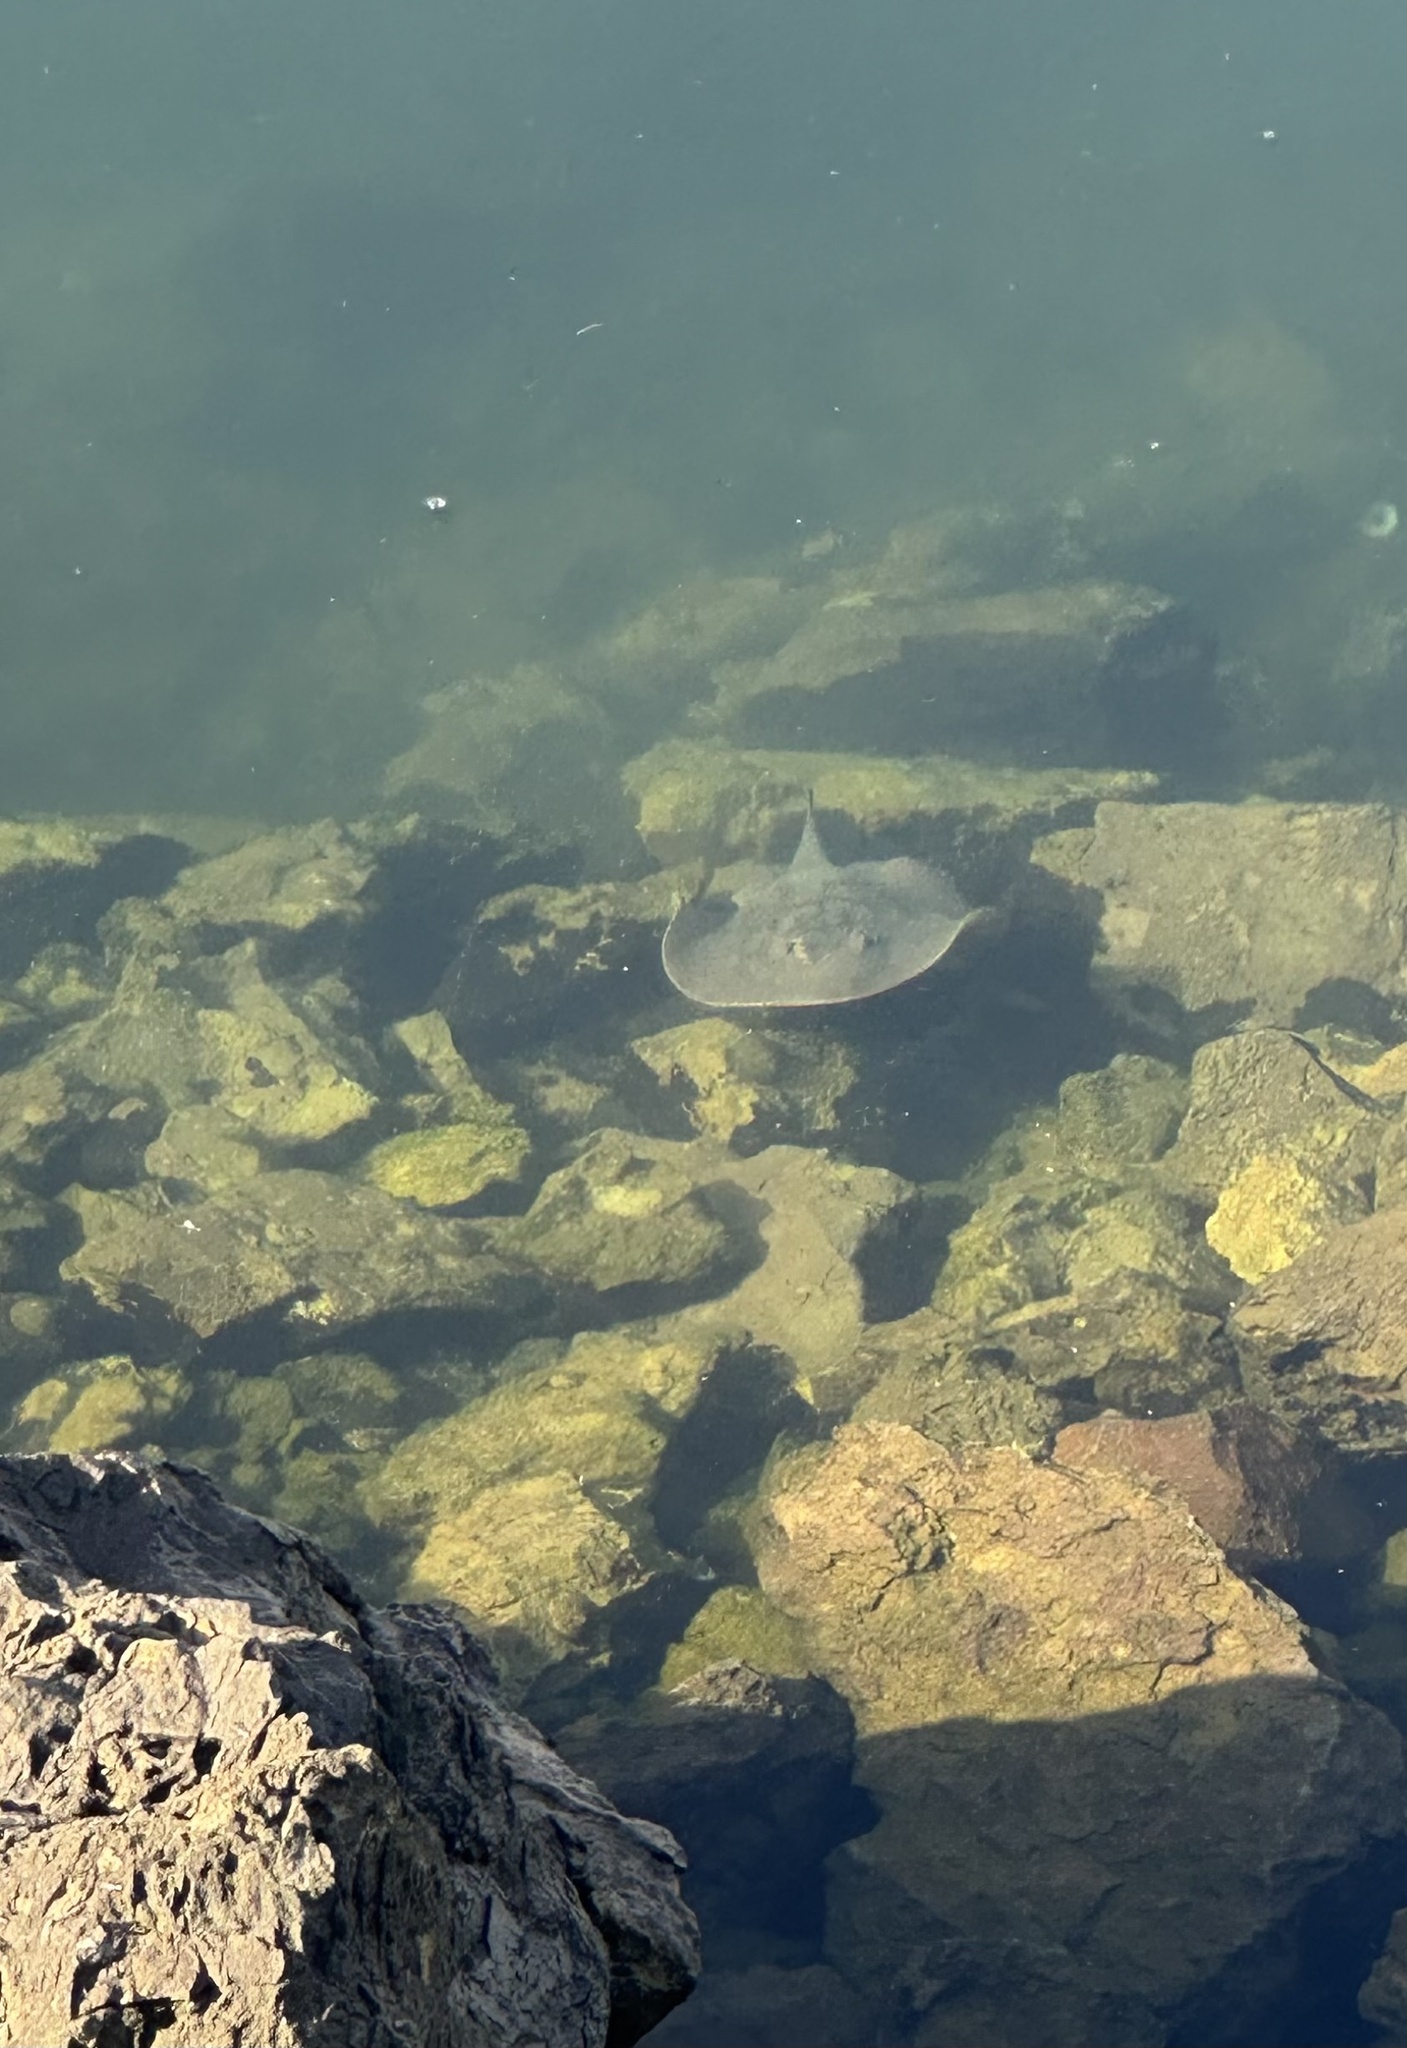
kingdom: Animalia
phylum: Chordata
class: Elasmobranchii
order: Myliobatiformes
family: Urolophidae
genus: Urolophus
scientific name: Urolophus halleri
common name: Round stingray
